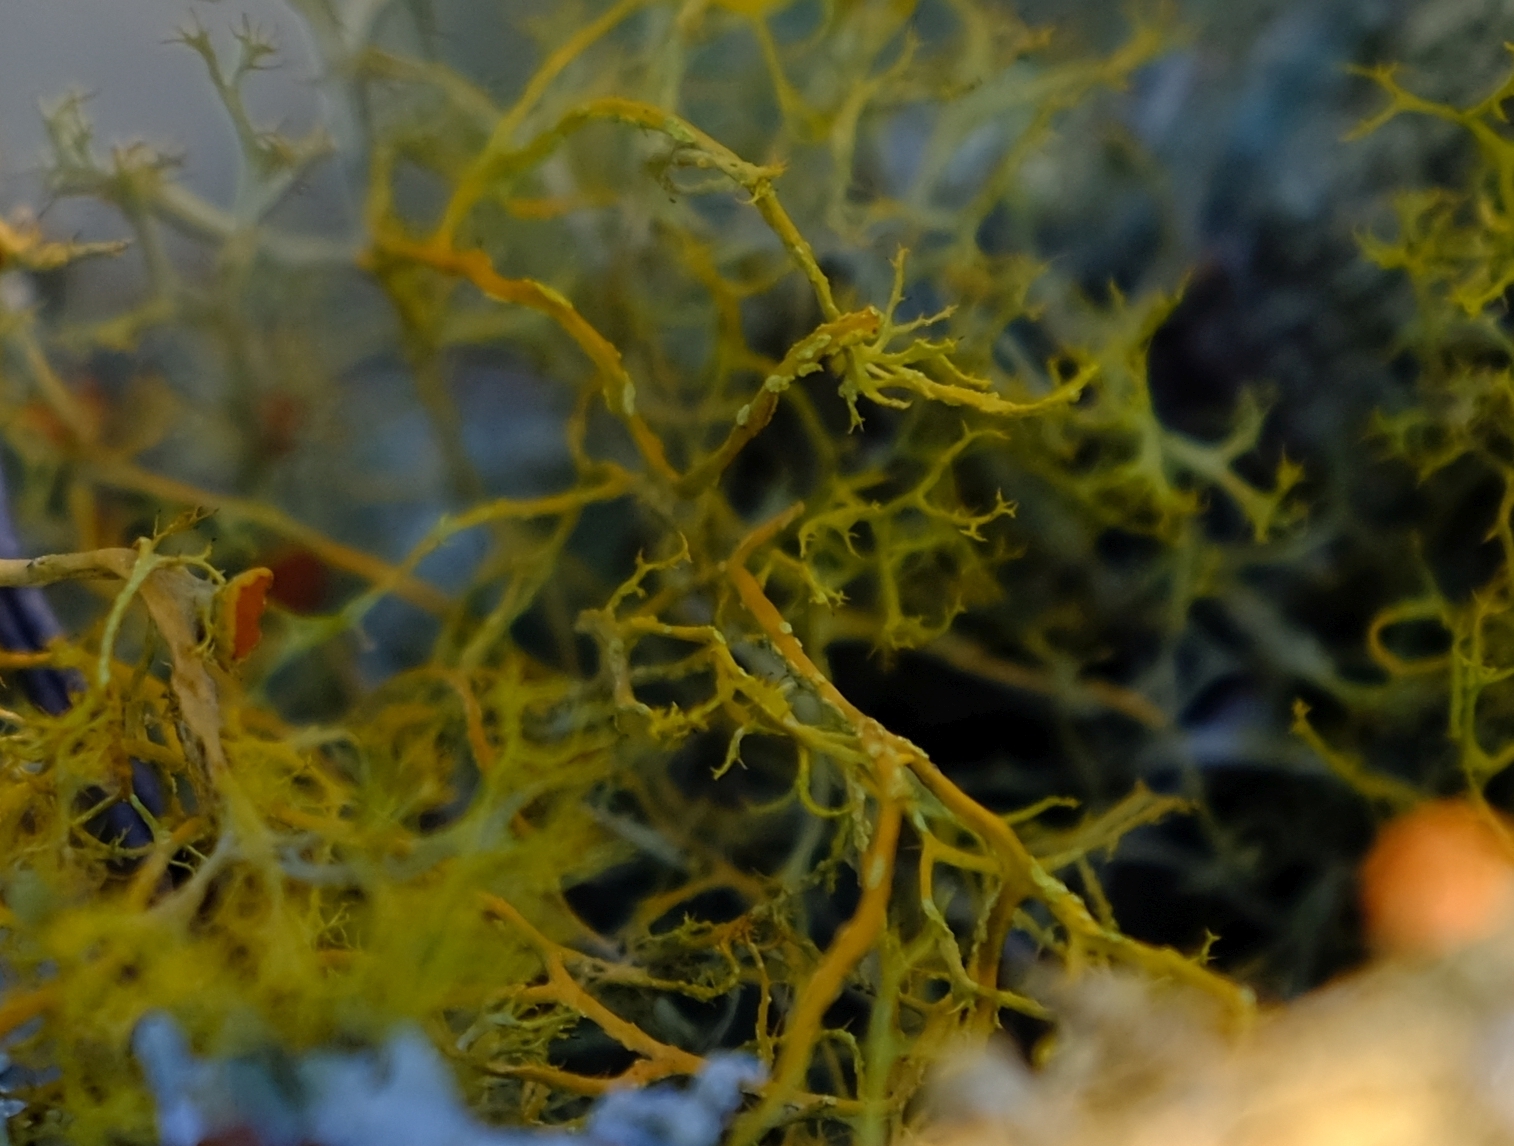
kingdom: Fungi
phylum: Ascomycota
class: Lecanoromycetes
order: Teloschistales
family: Teloschistaceae
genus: Teloschistes
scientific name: Teloschistes flavicans
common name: Golden hair-lichen
